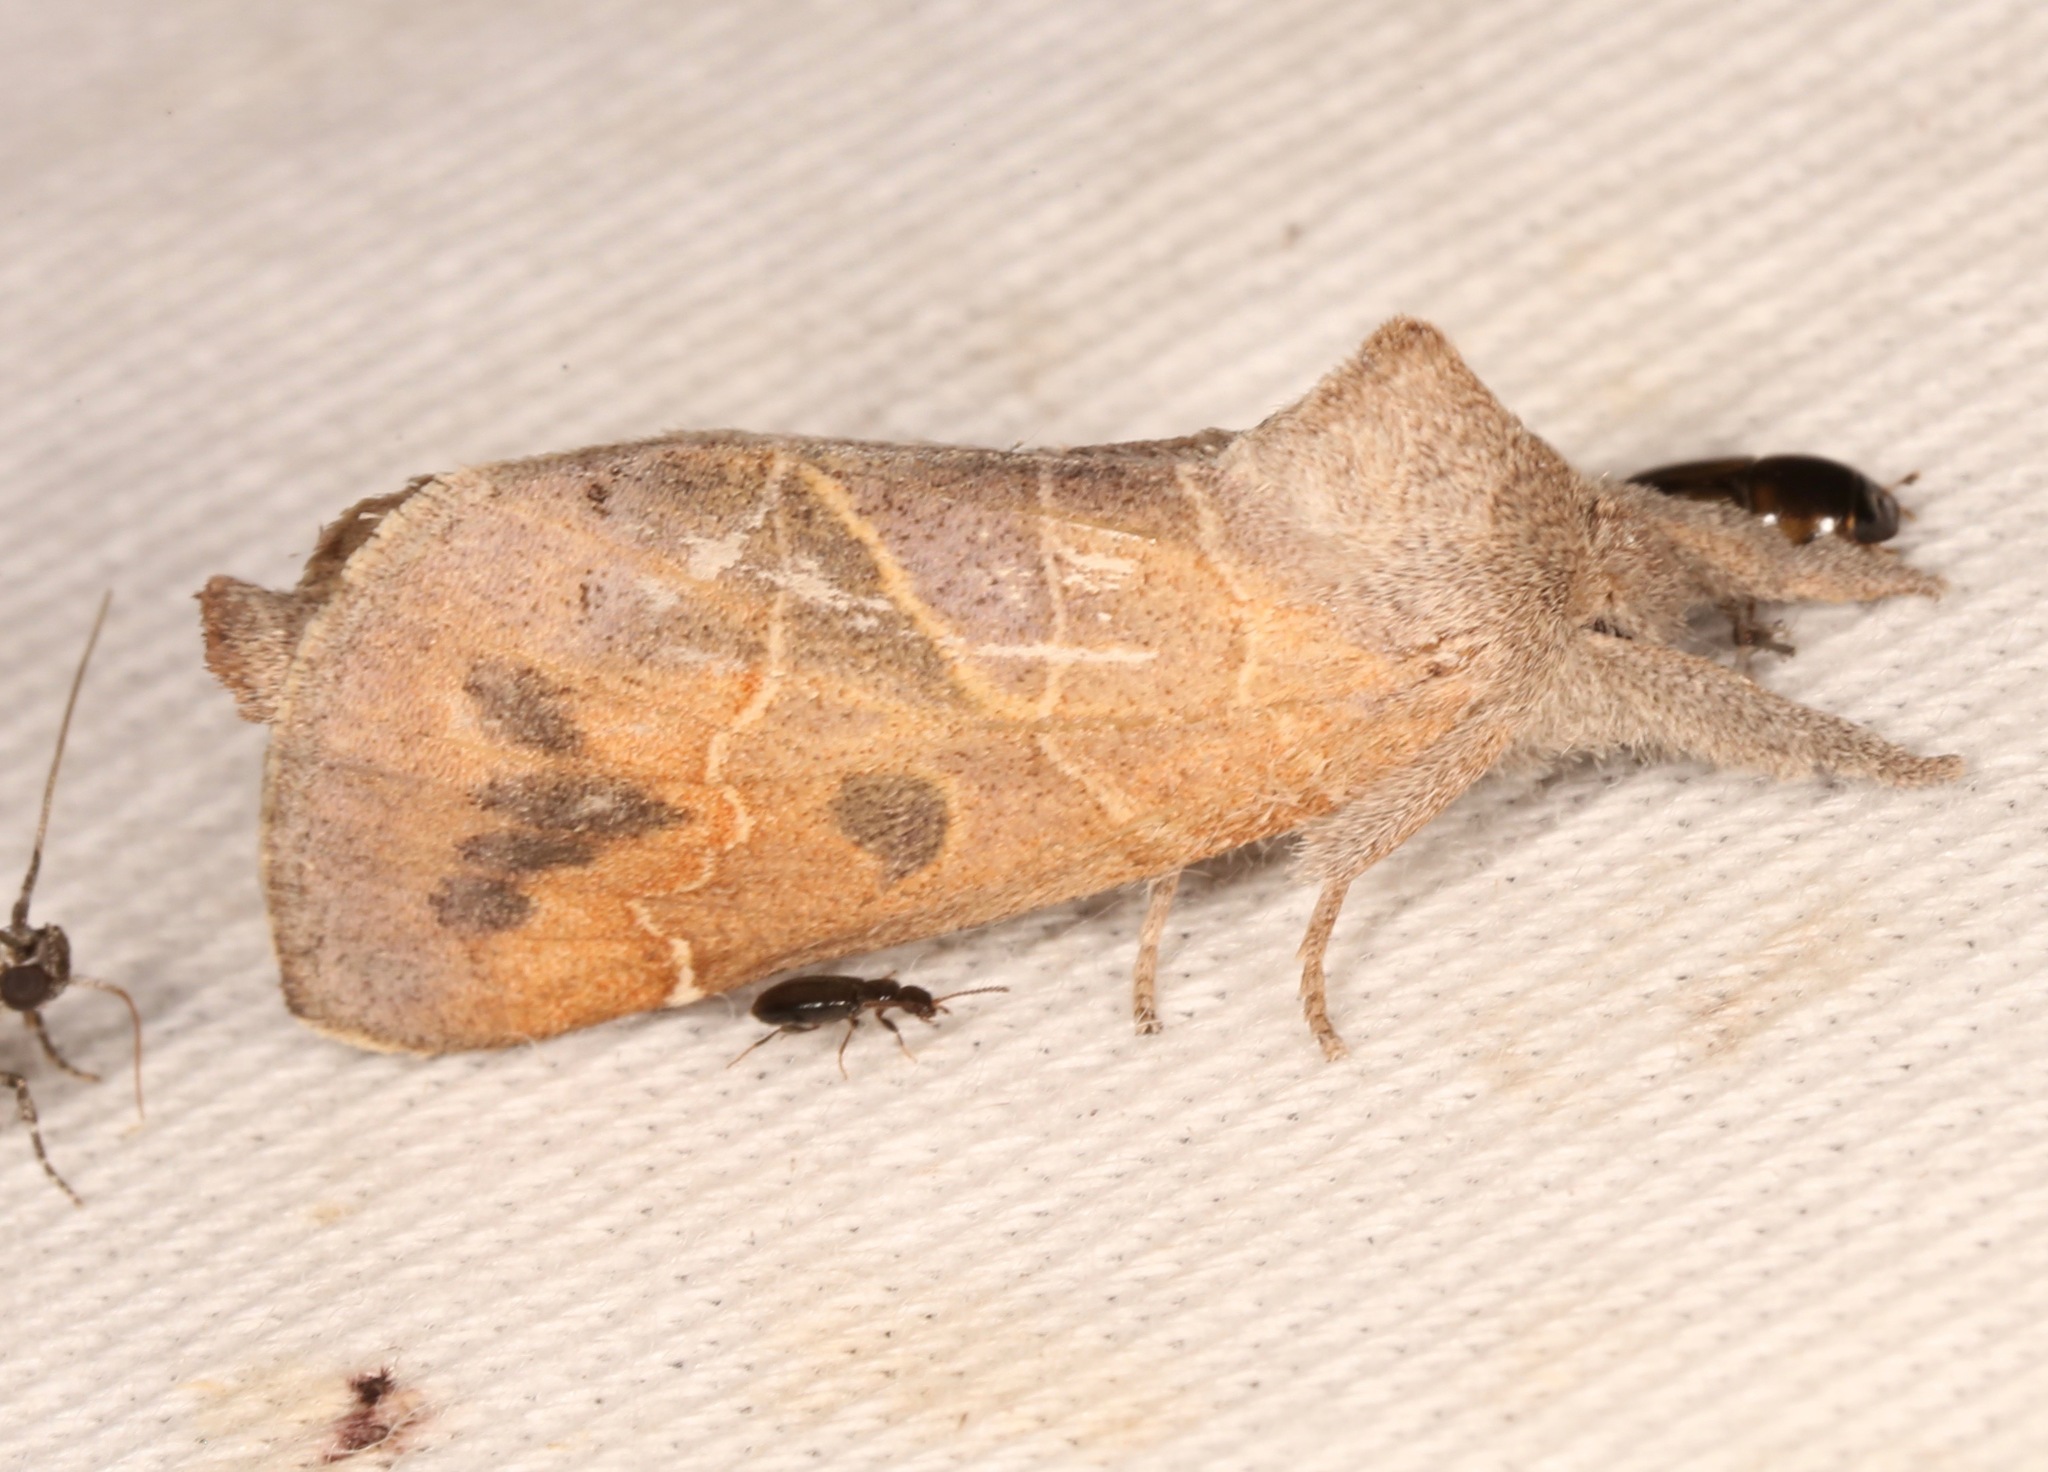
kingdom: Animalia
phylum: Arthropoda
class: Insecta
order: Lepidoptera
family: Notodontidae
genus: Clostera
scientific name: Clostera inornata
